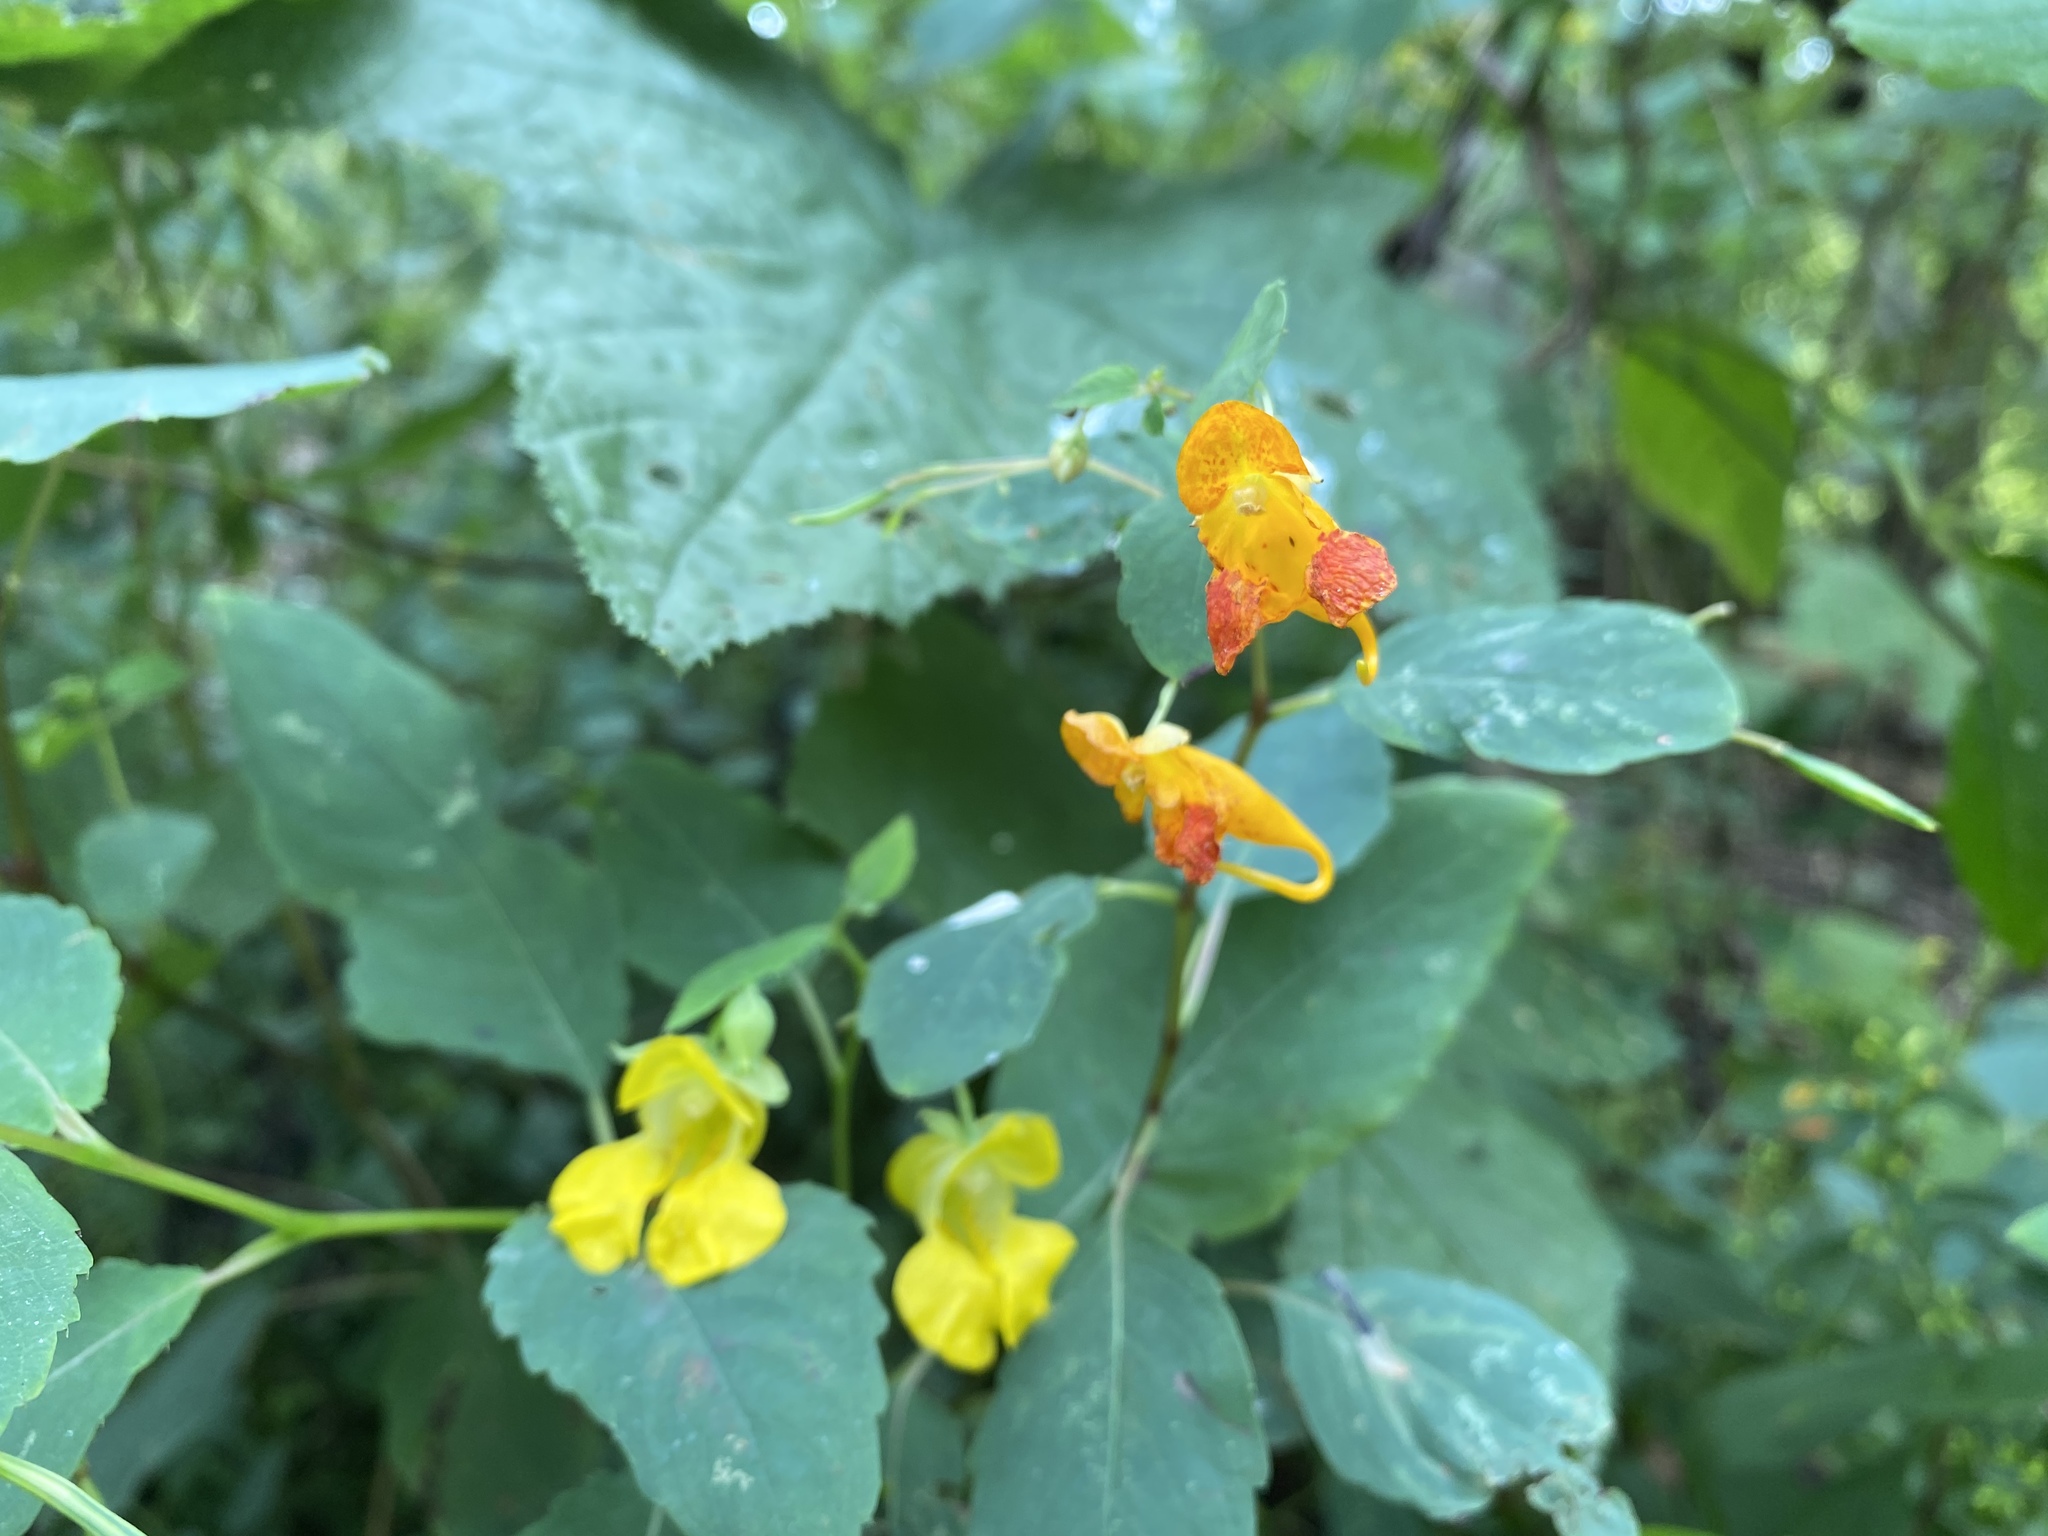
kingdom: Plantae
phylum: Tracheophyta
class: Magnoliopsida
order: Ericales
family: Balsaminaceae
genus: Impatiens
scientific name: Impatiens pallida
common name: Pale snapweed
